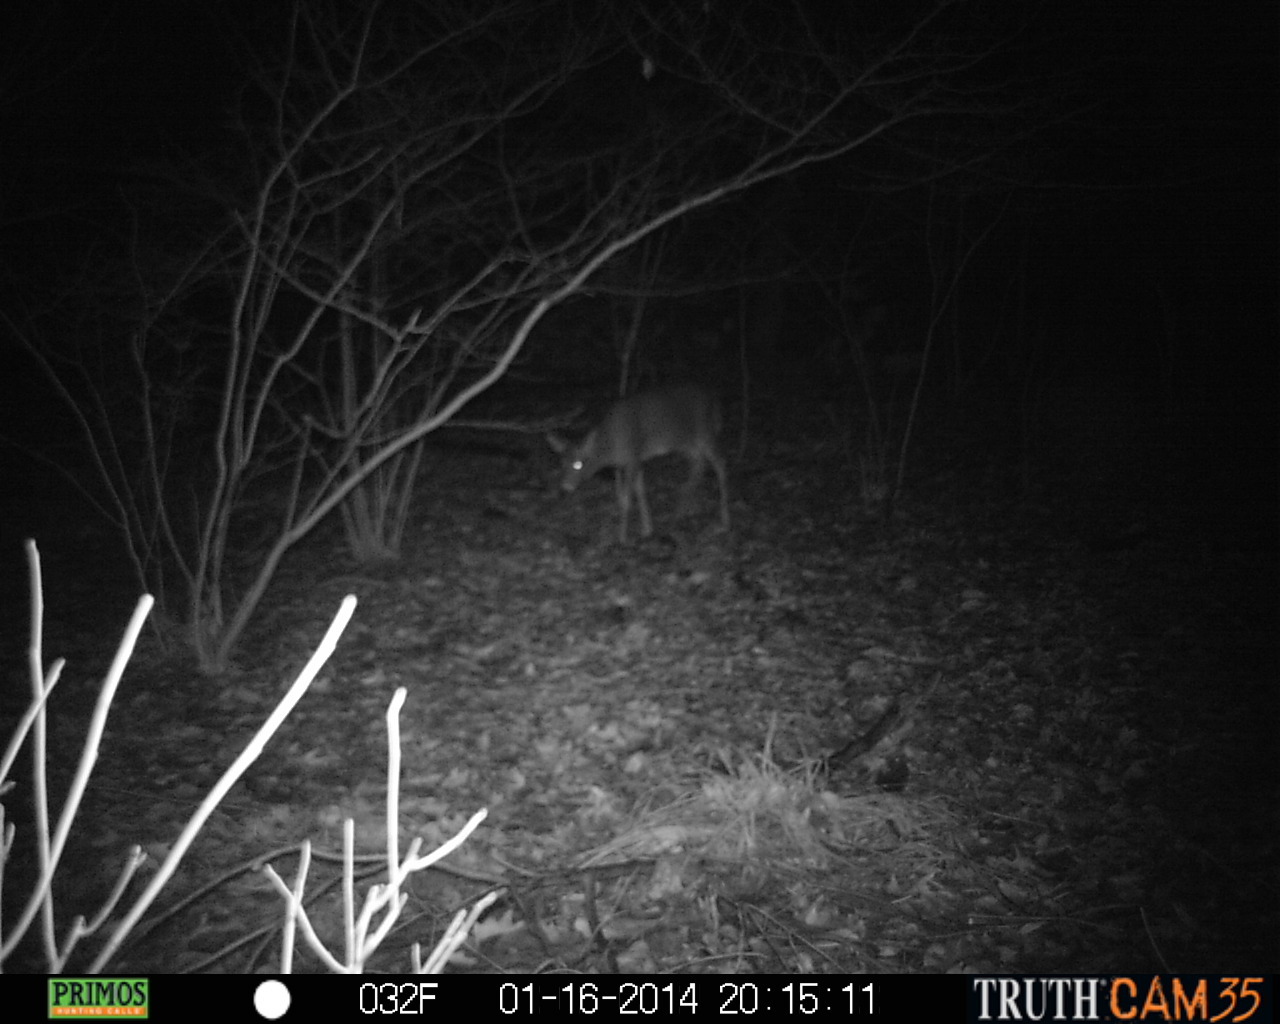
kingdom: Animalia
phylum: Chordata
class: Mammalia
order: Artiodactyla
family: Cervidae
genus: Odocoileus
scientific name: Odocoileus virginianus
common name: White-tailed deer
